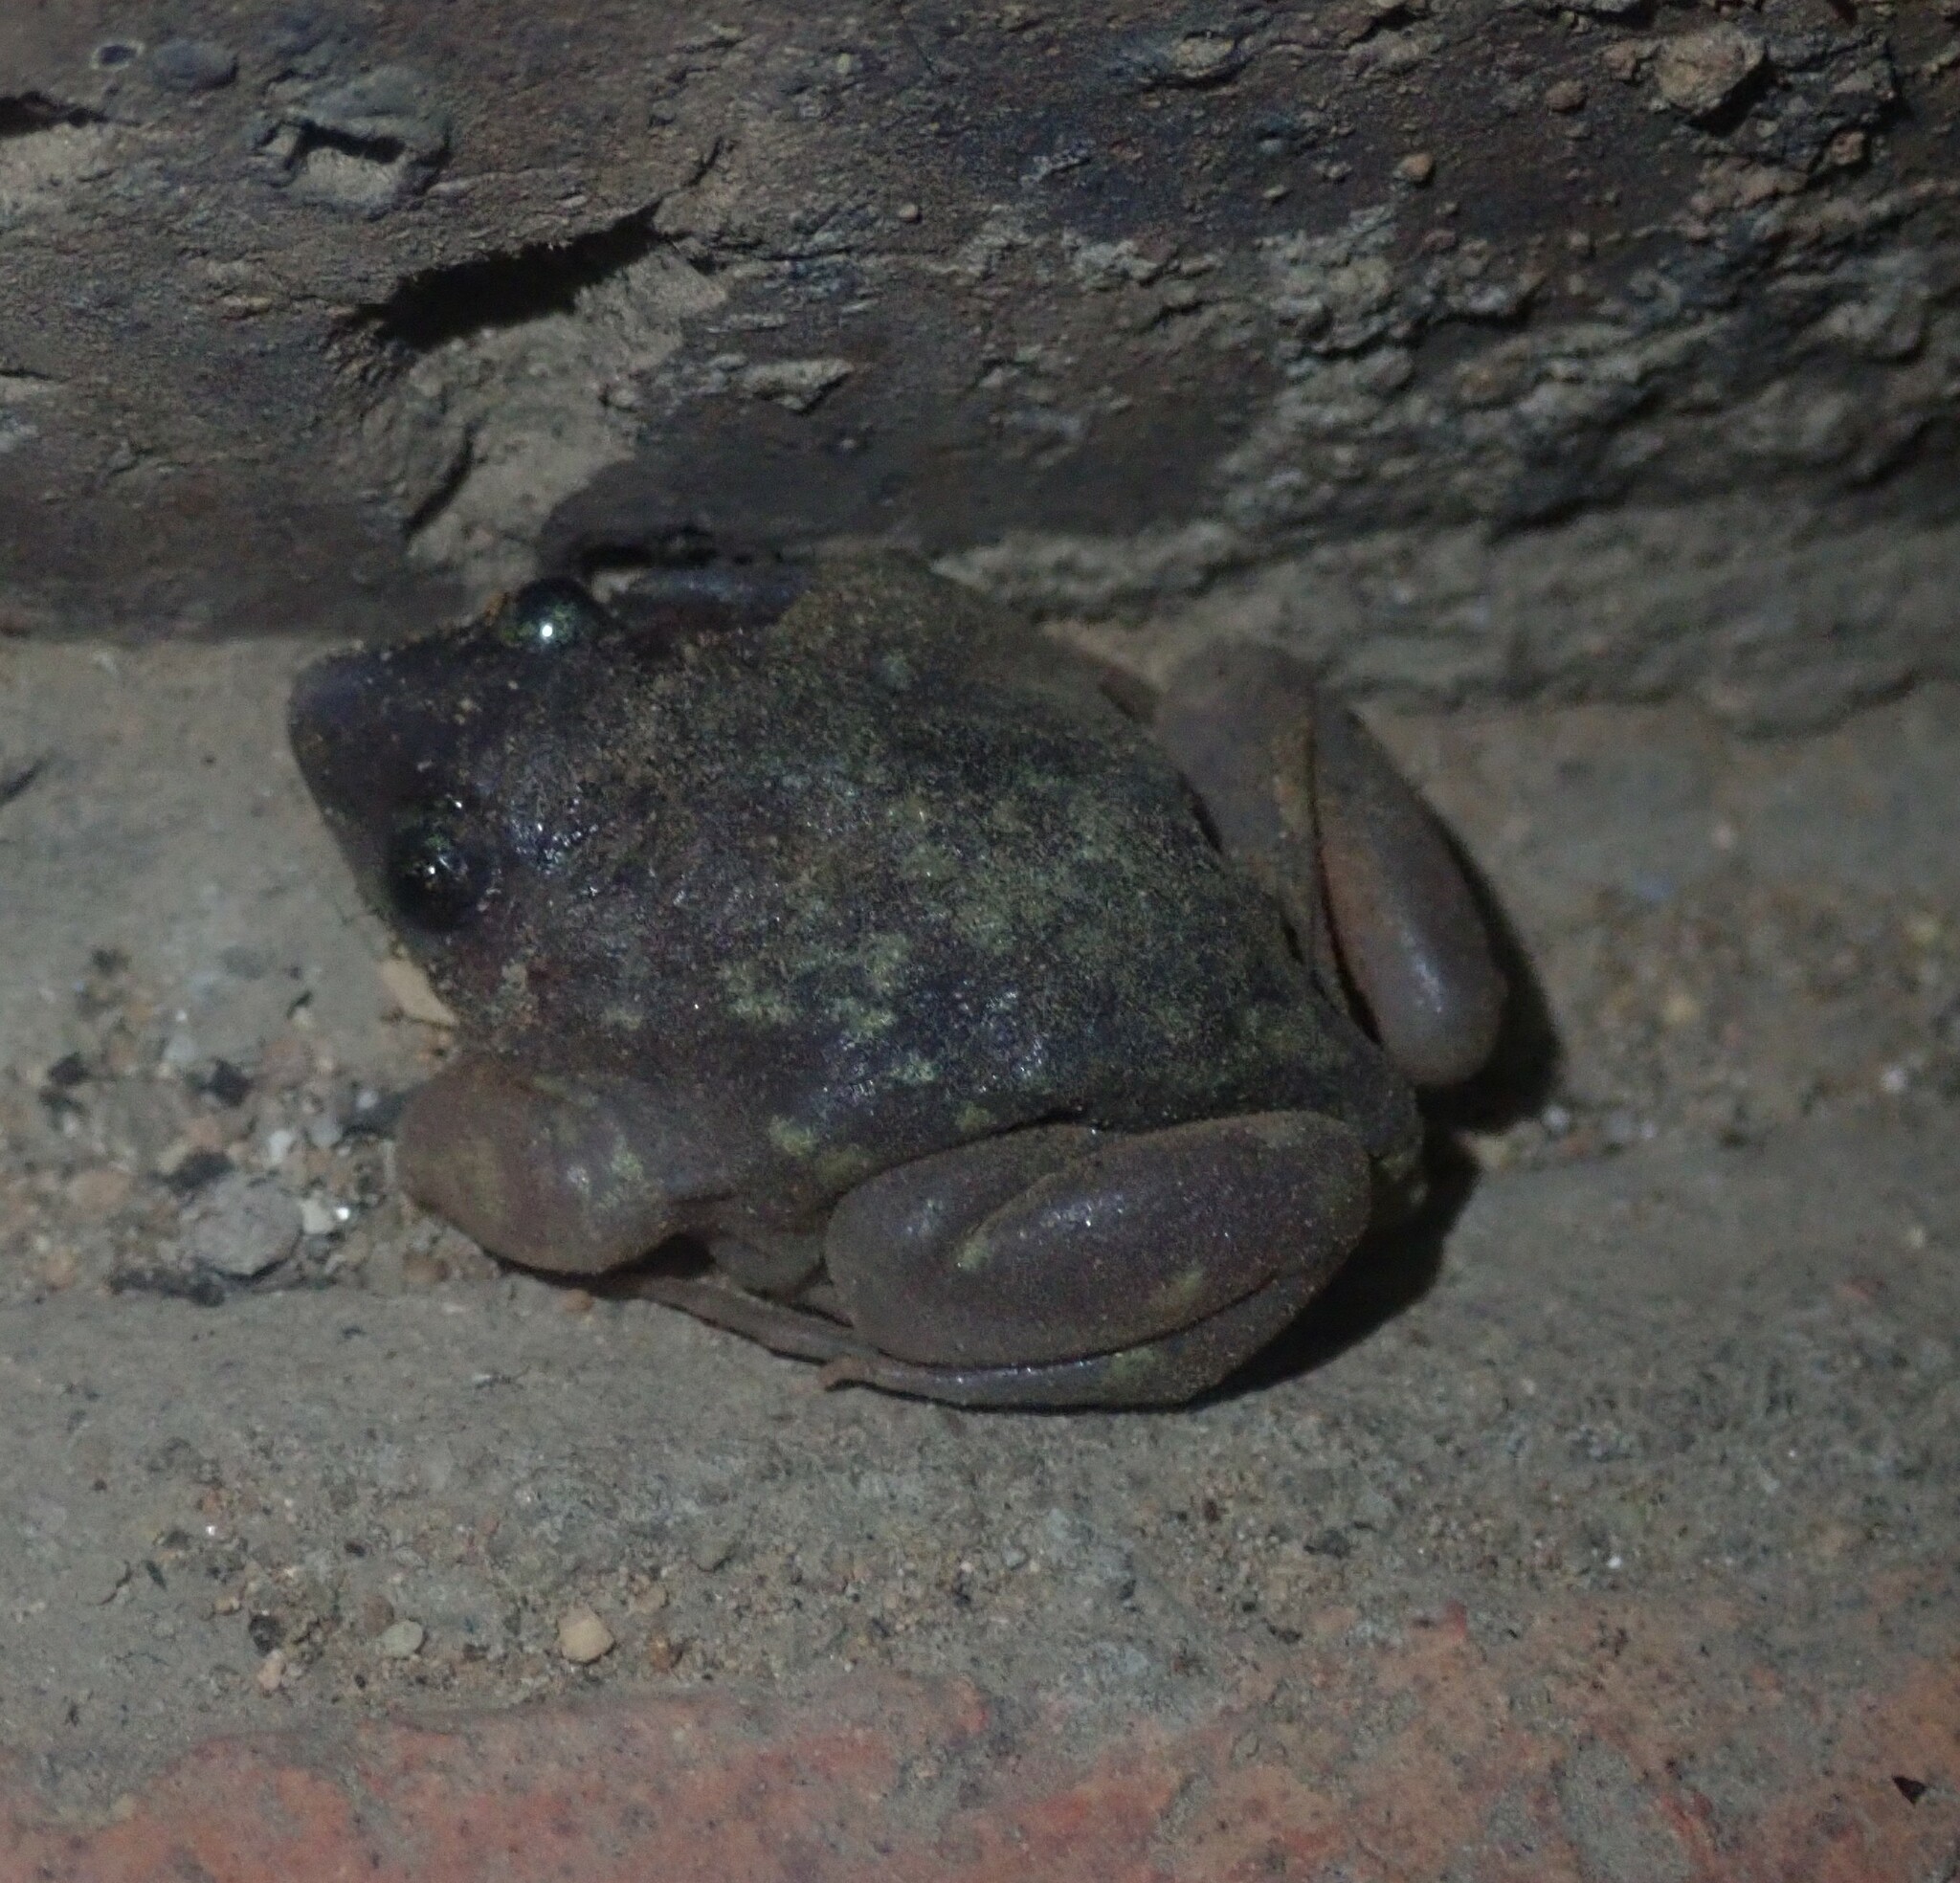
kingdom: Animalia
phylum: Chordata
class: Amphibia
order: Anura
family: Hemisotidae
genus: Hemisus
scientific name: Hemisus marmoratus
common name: Mottled shovel-nosed frog
